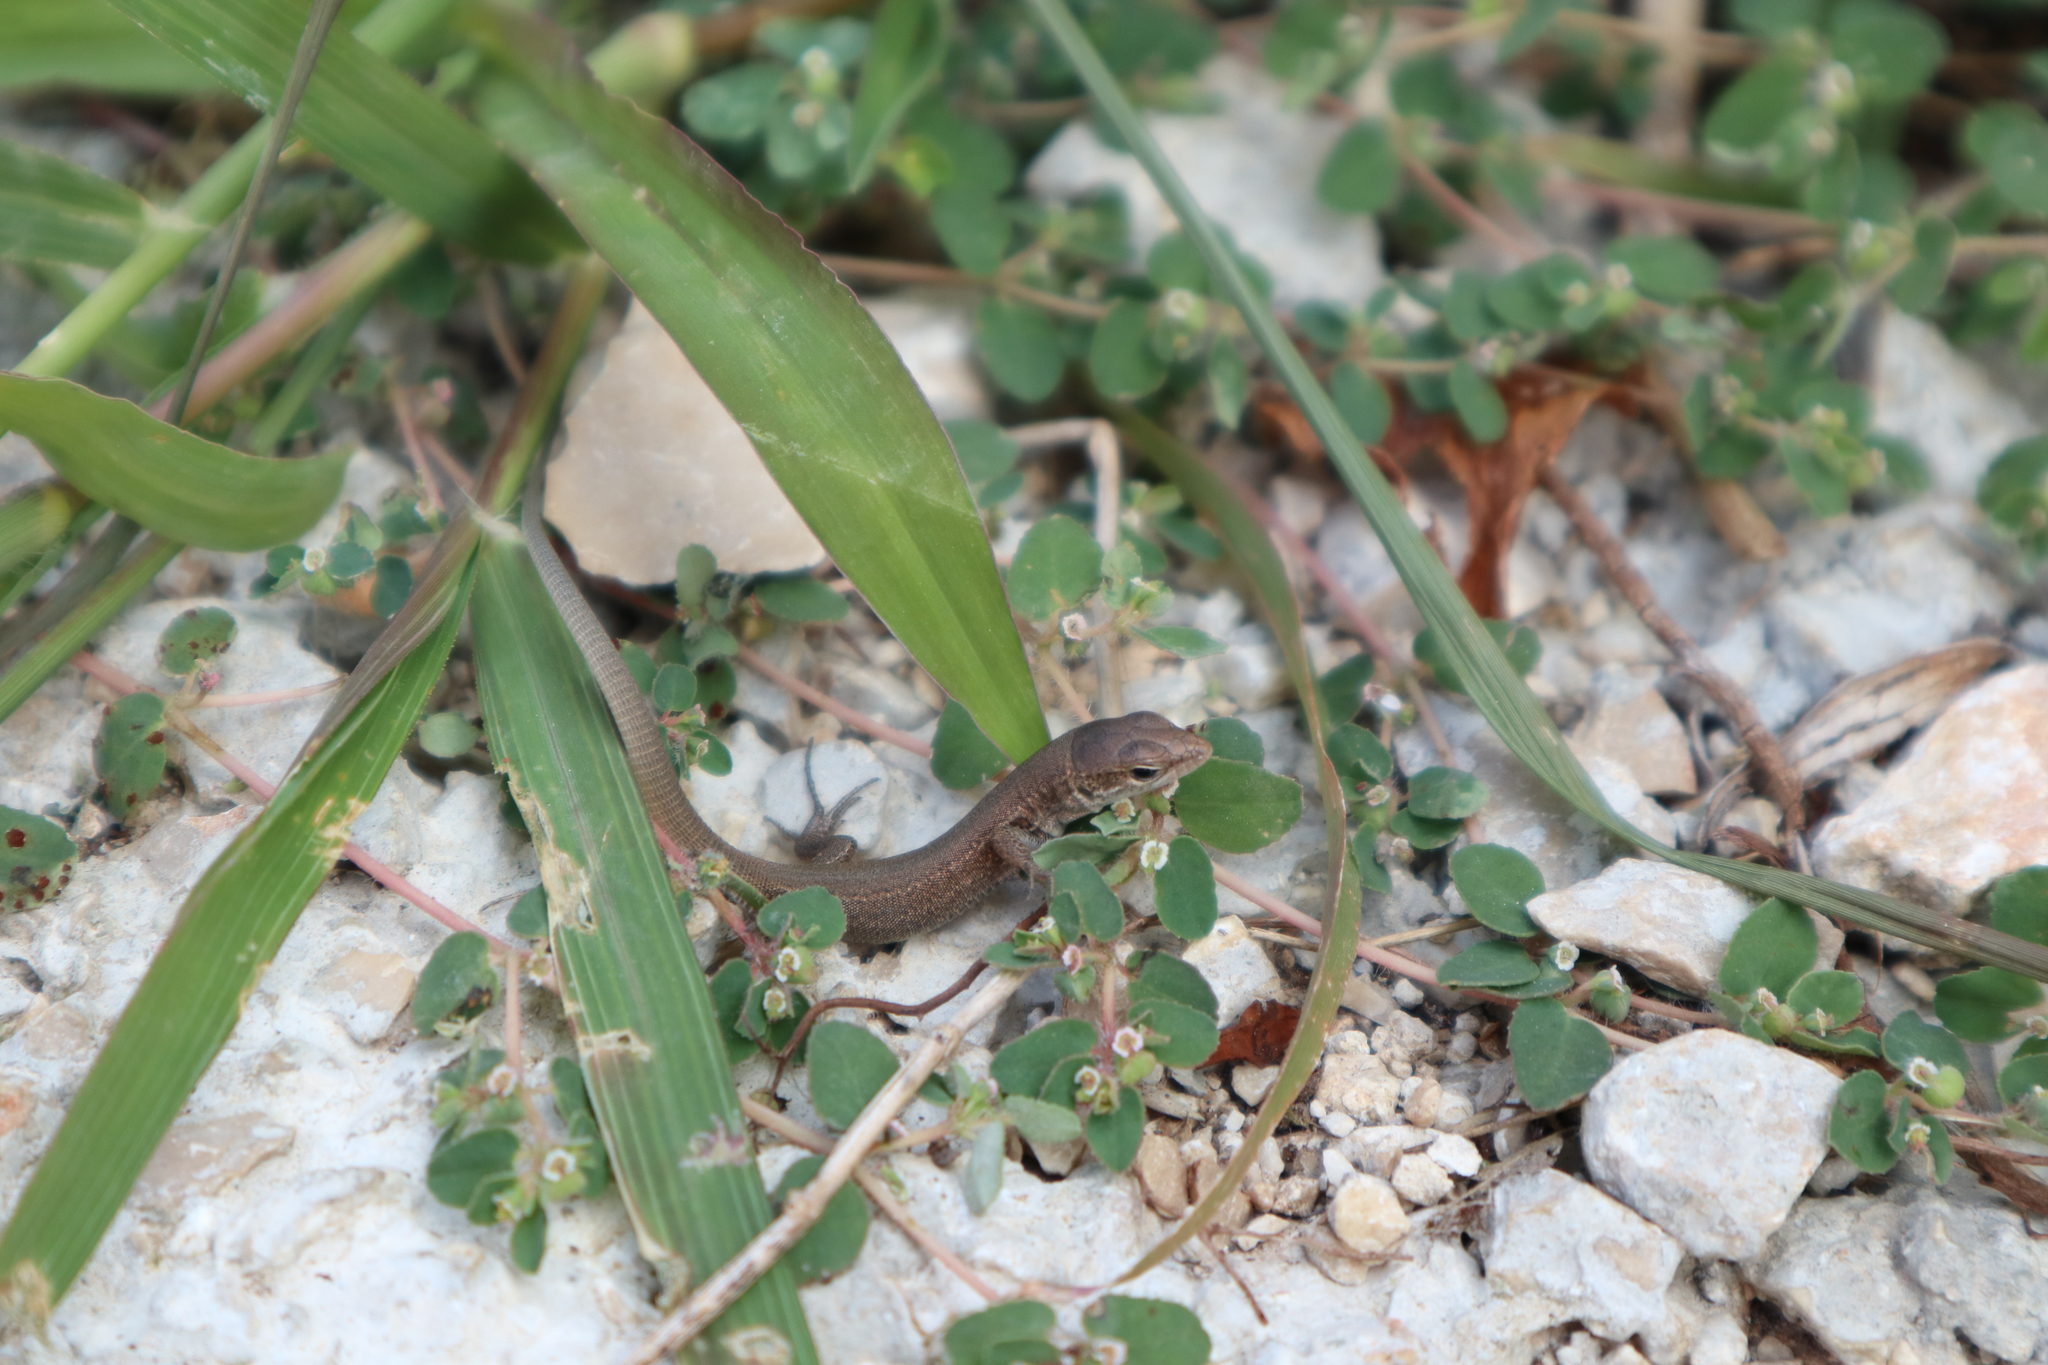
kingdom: Animalia
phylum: Chordata
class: Squamata
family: Lacertidae
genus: Podarcis
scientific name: Podarcis melisellensis
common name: Dalmatian wall lizard
